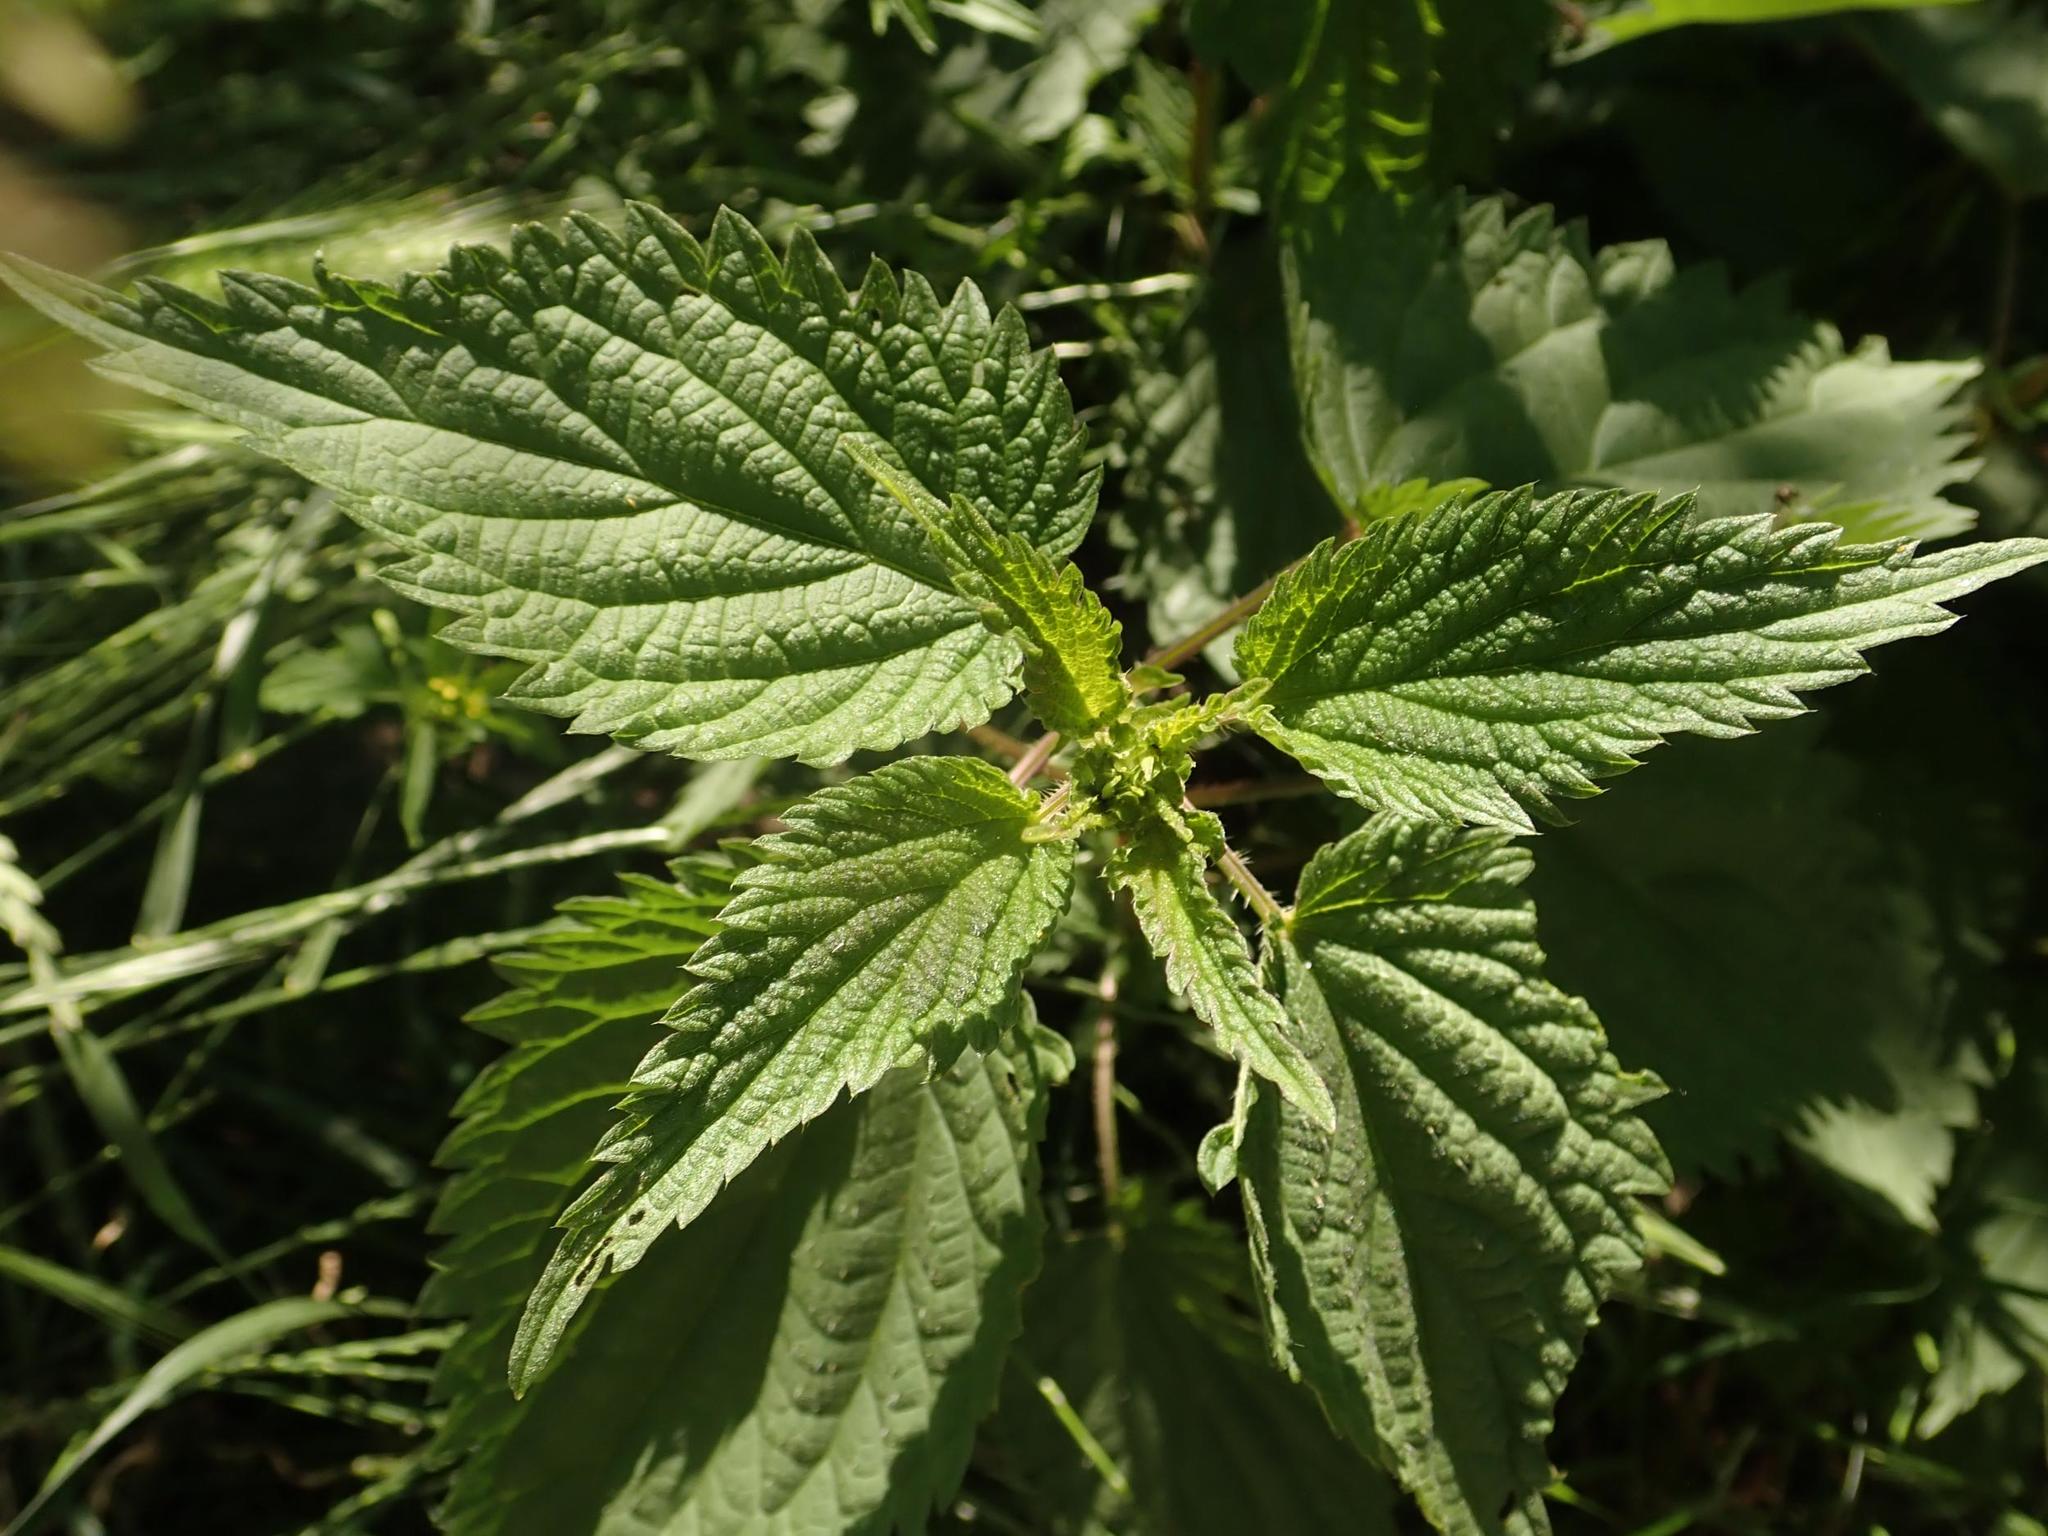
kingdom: Plantae
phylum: Tracheophyta
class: Magnoliopsida
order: Rosales
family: Urticaceae
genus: Urtica
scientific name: Urtica dioica
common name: Common nettle
